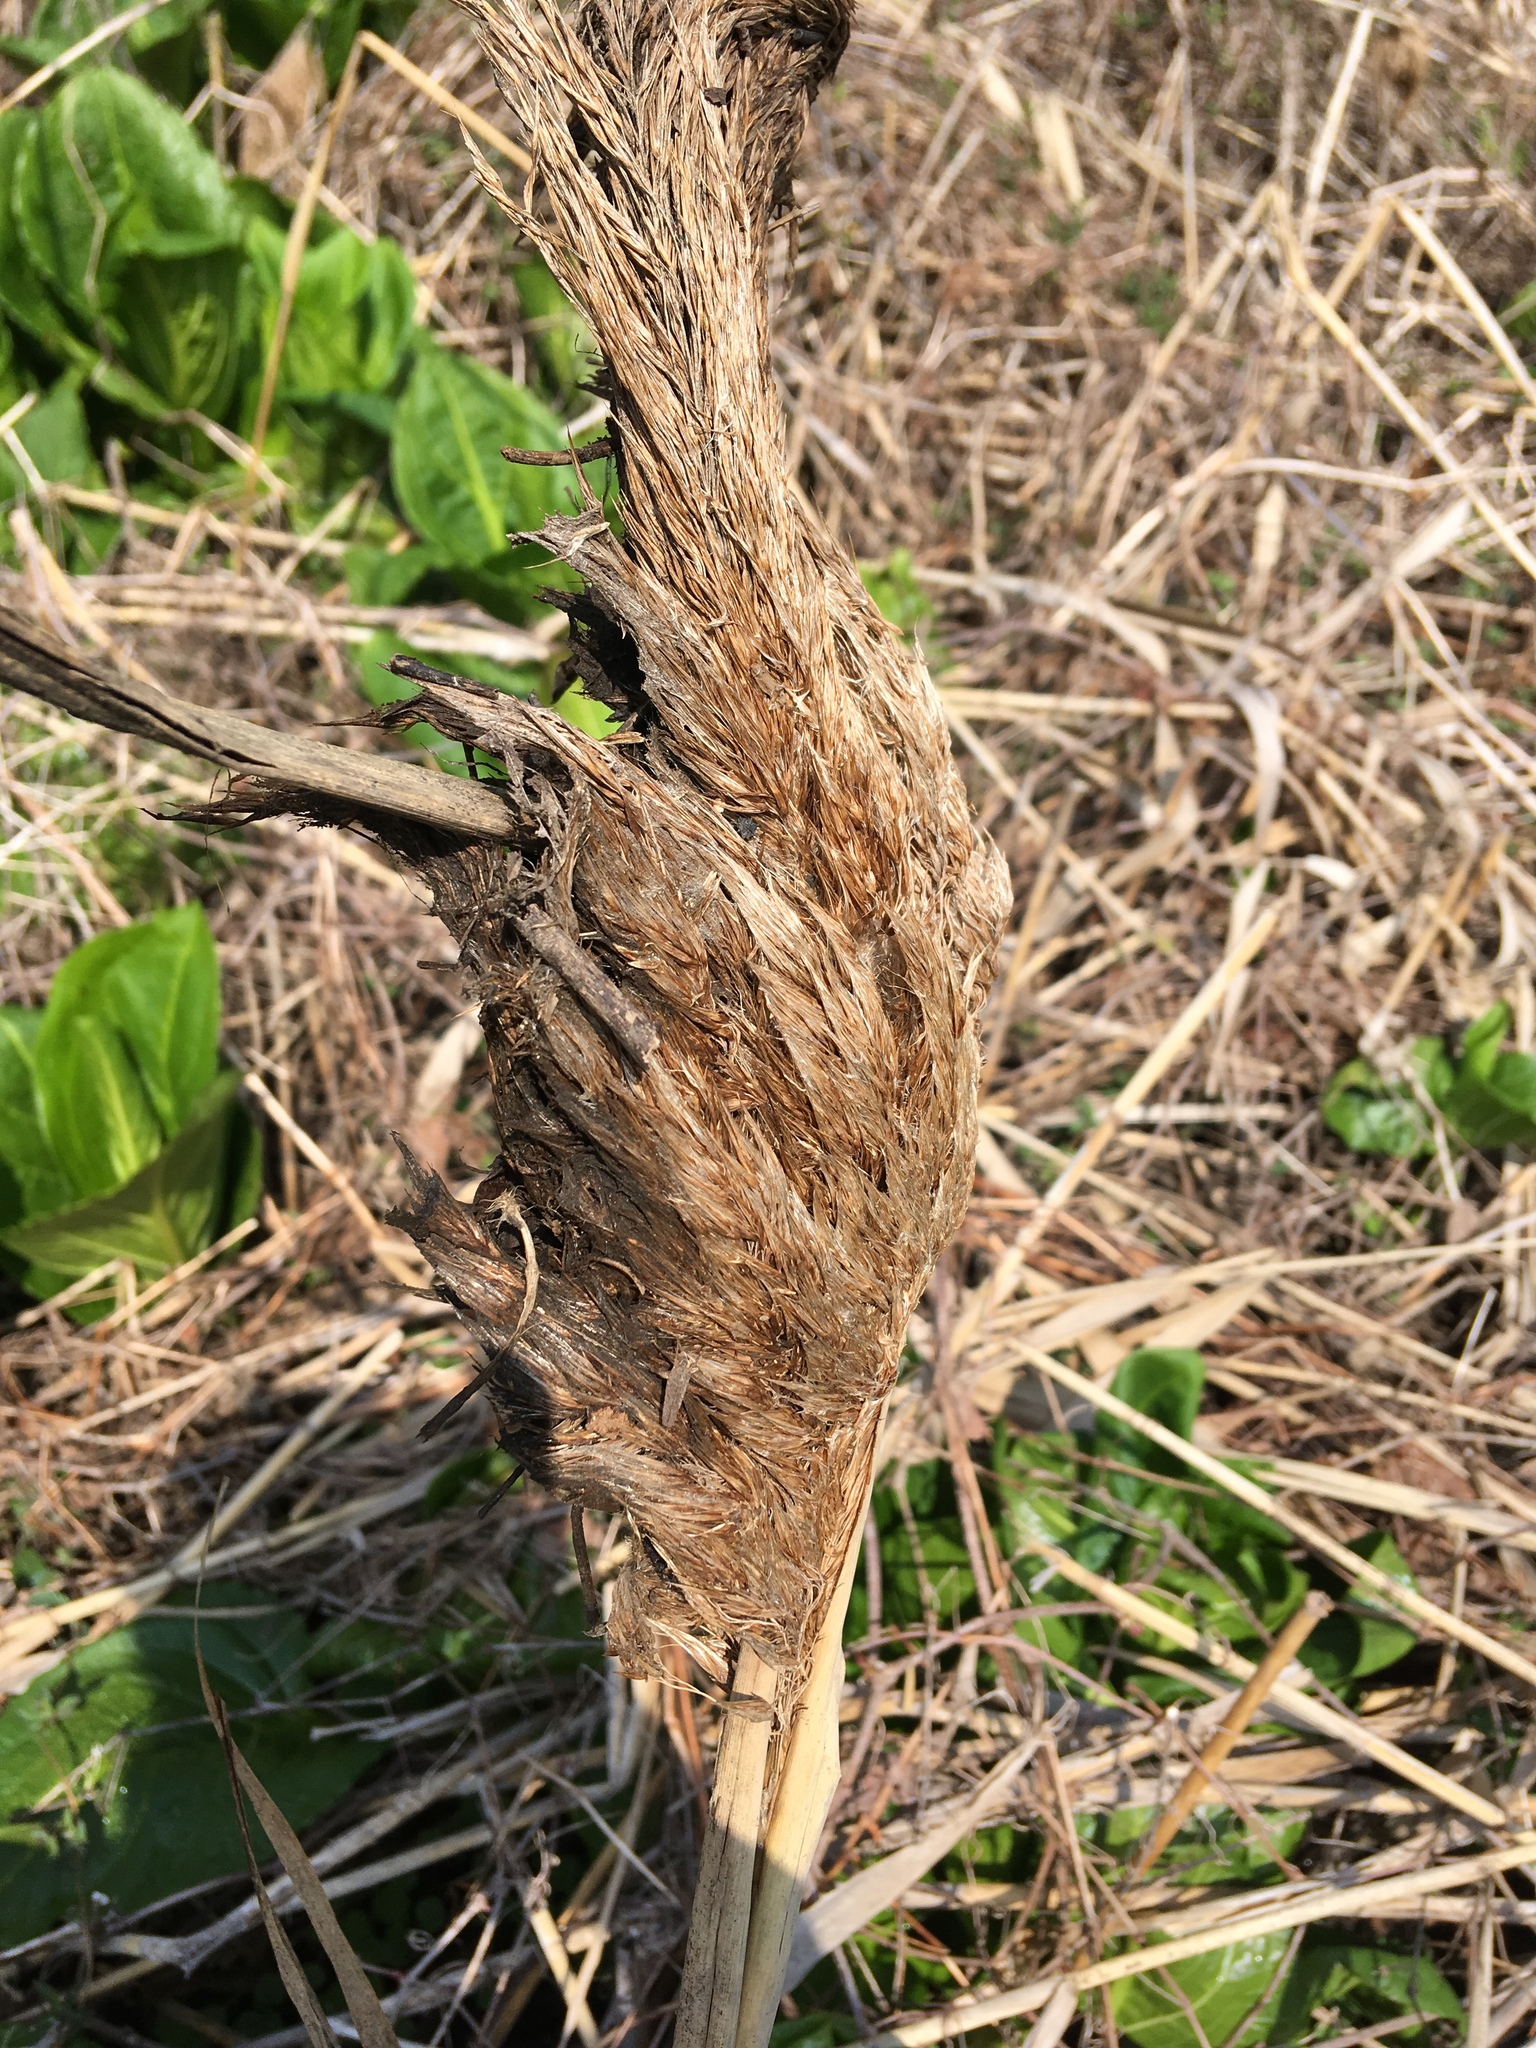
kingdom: Plantae
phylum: Tracheophyta
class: Liliopsida
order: Poales
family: Poaceae
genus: Phragmites
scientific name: Phragmites australis
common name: Common reed
